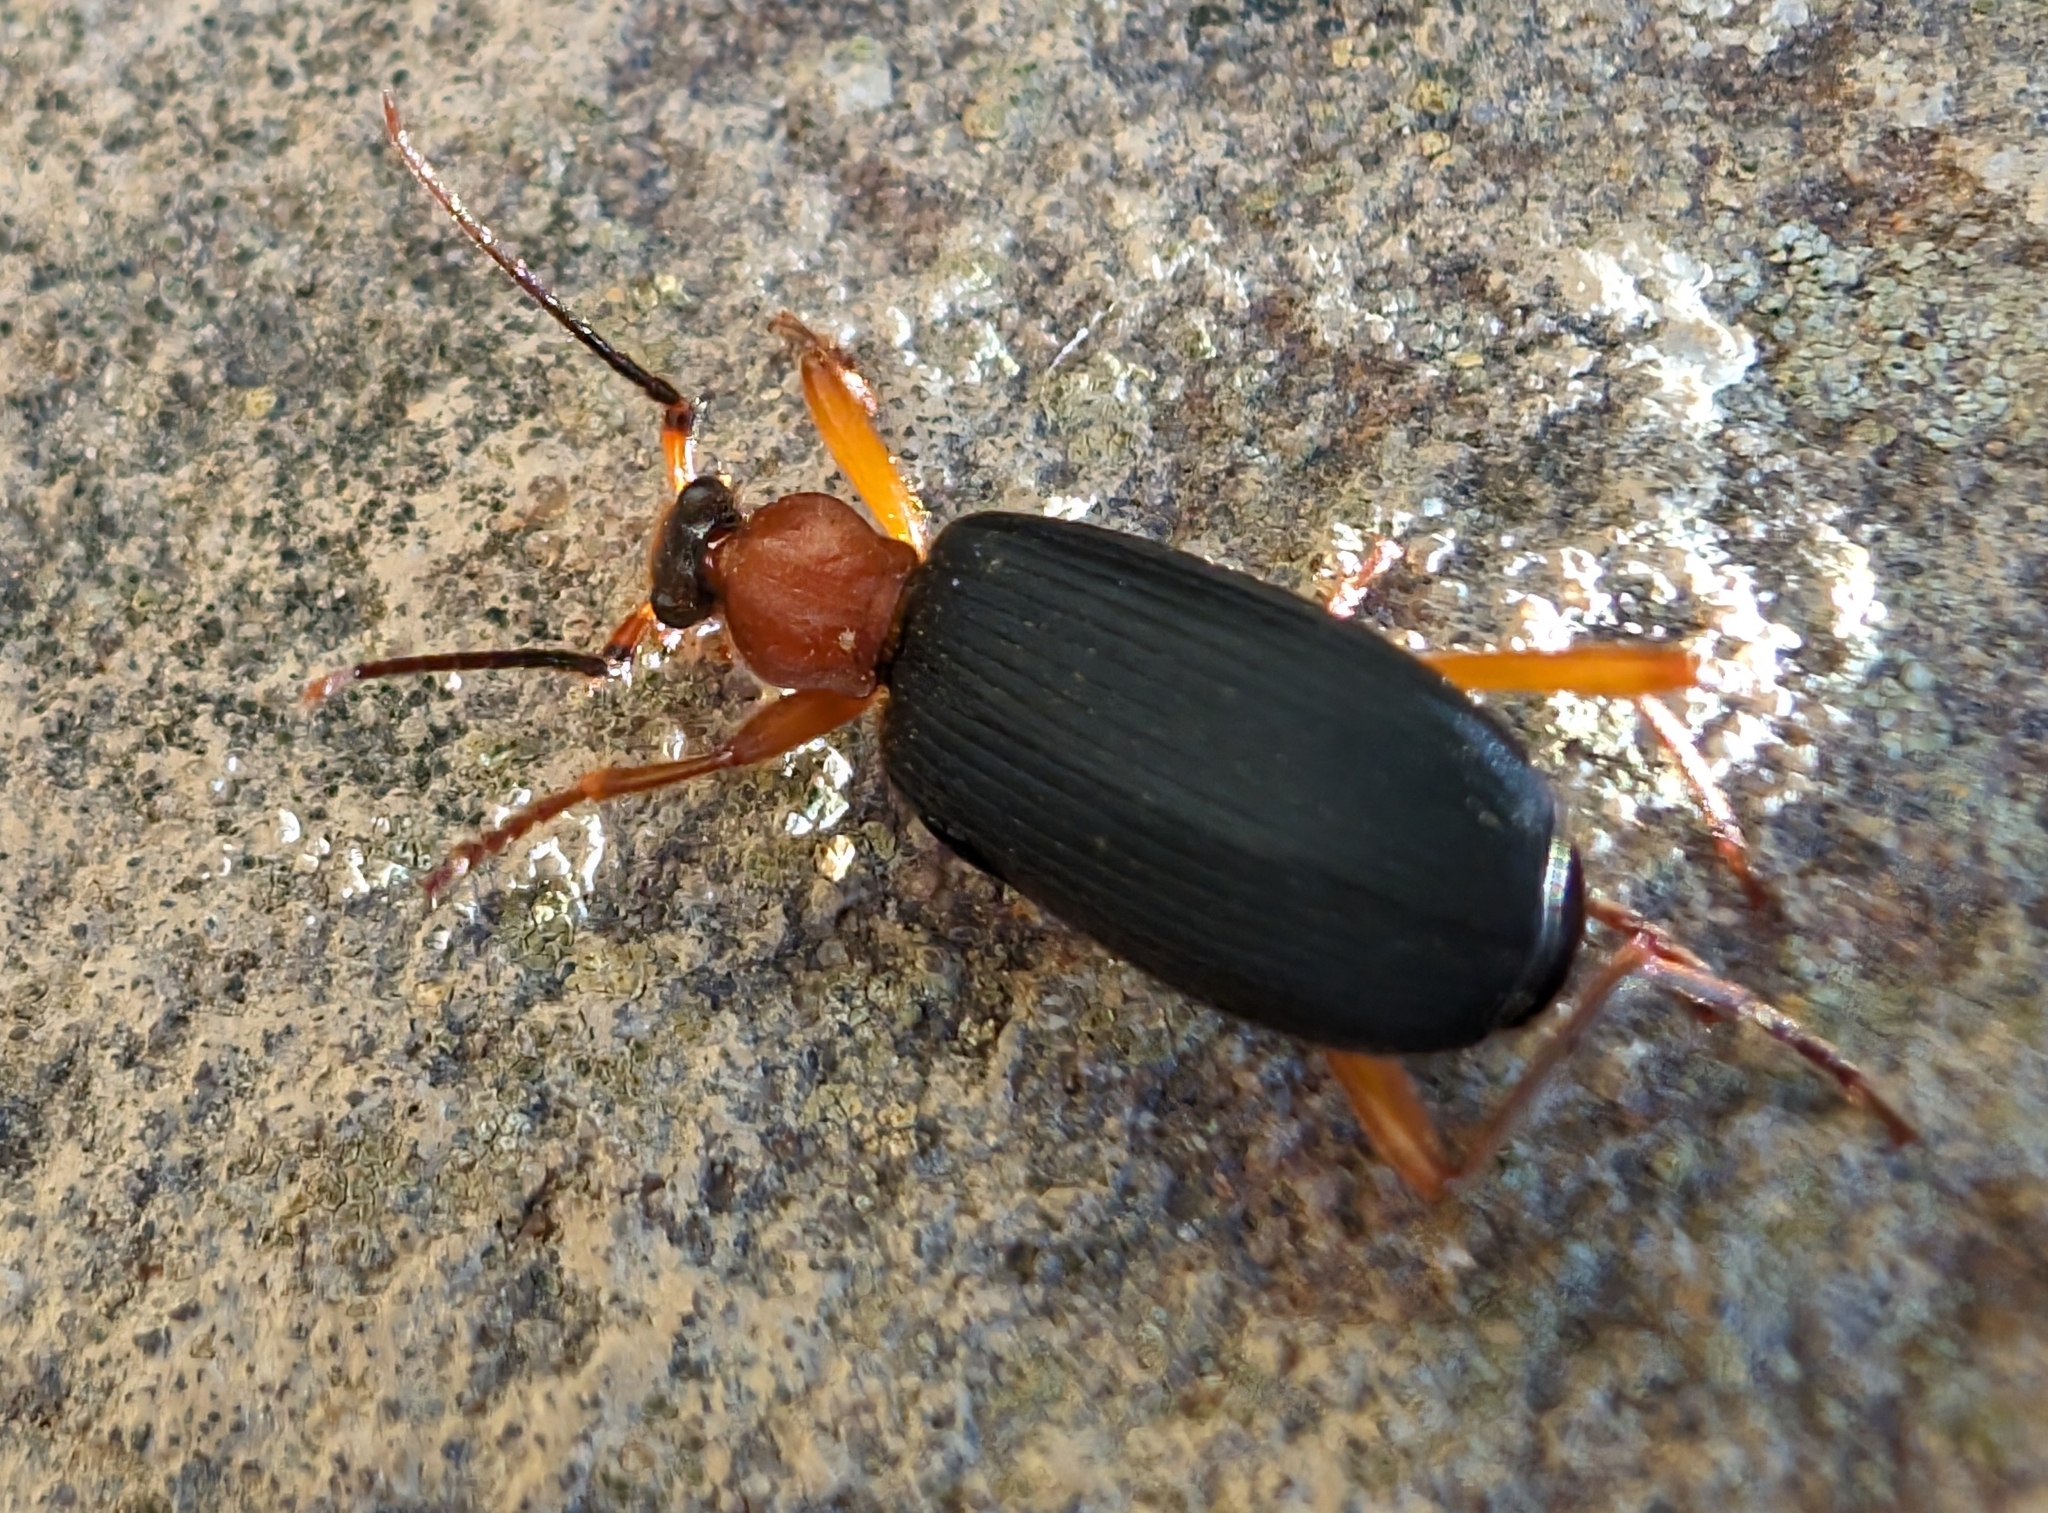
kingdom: Animalia
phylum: Arthropoda
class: Insecta
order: Coleoptera
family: Carabidae
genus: Galerita
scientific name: Galerita bicolor
